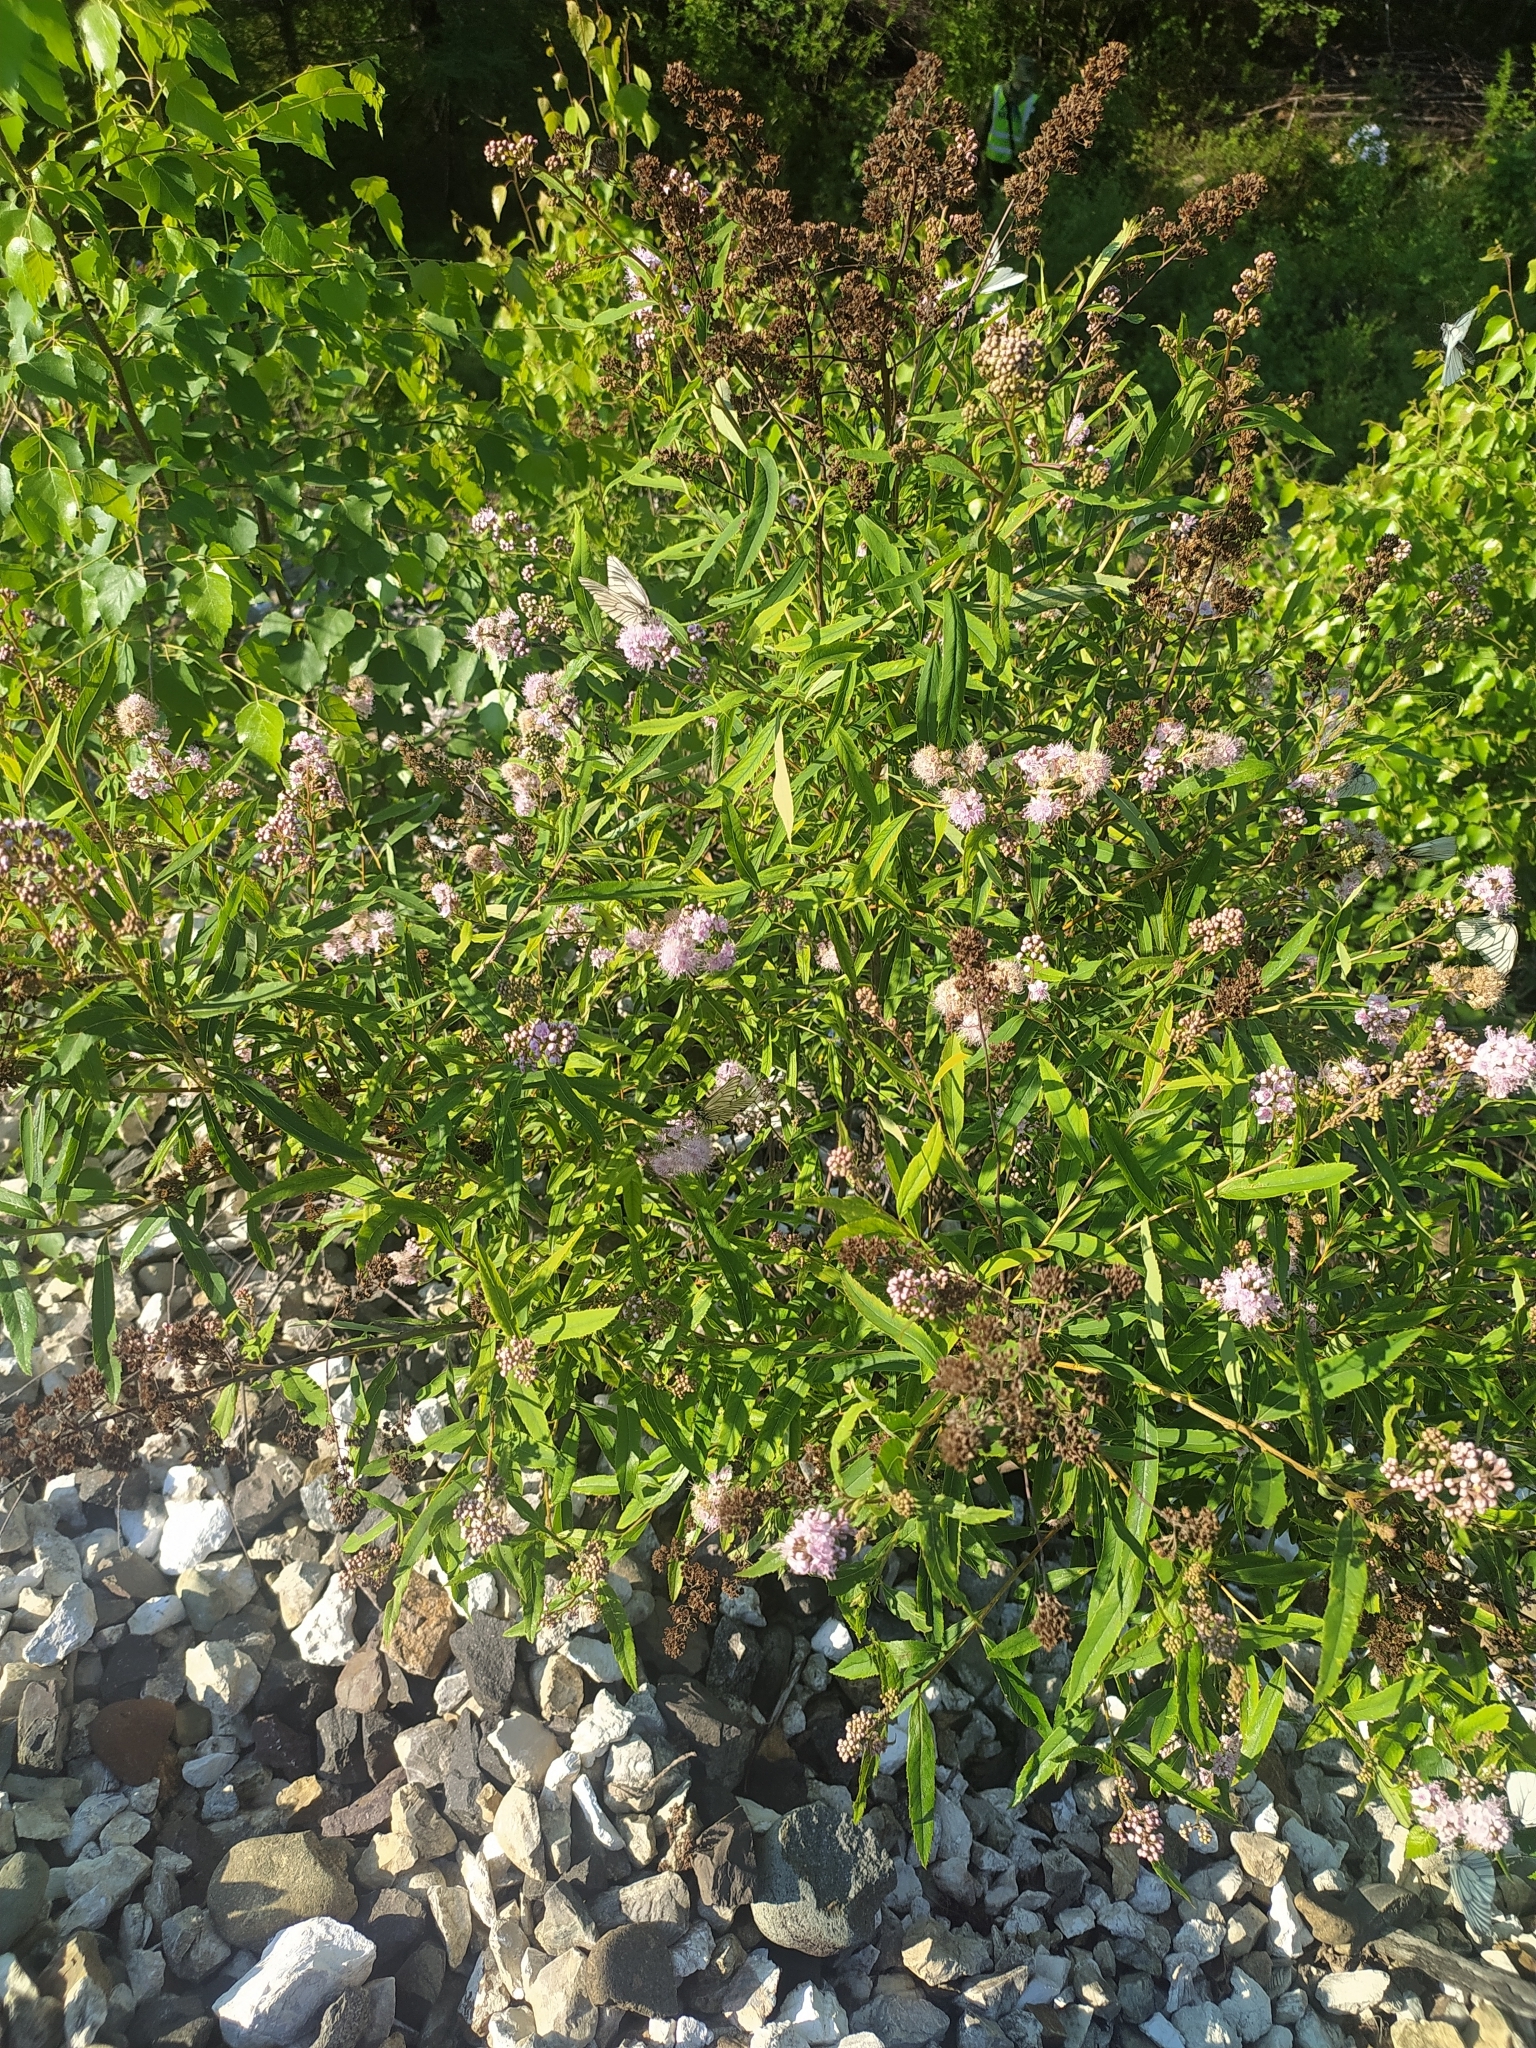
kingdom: Plantae
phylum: Tracheophyta
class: Magnoliopsida
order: Rosales
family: Rosaceae
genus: Spiraea
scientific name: Spiraea salicifolia
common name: Bridewort
